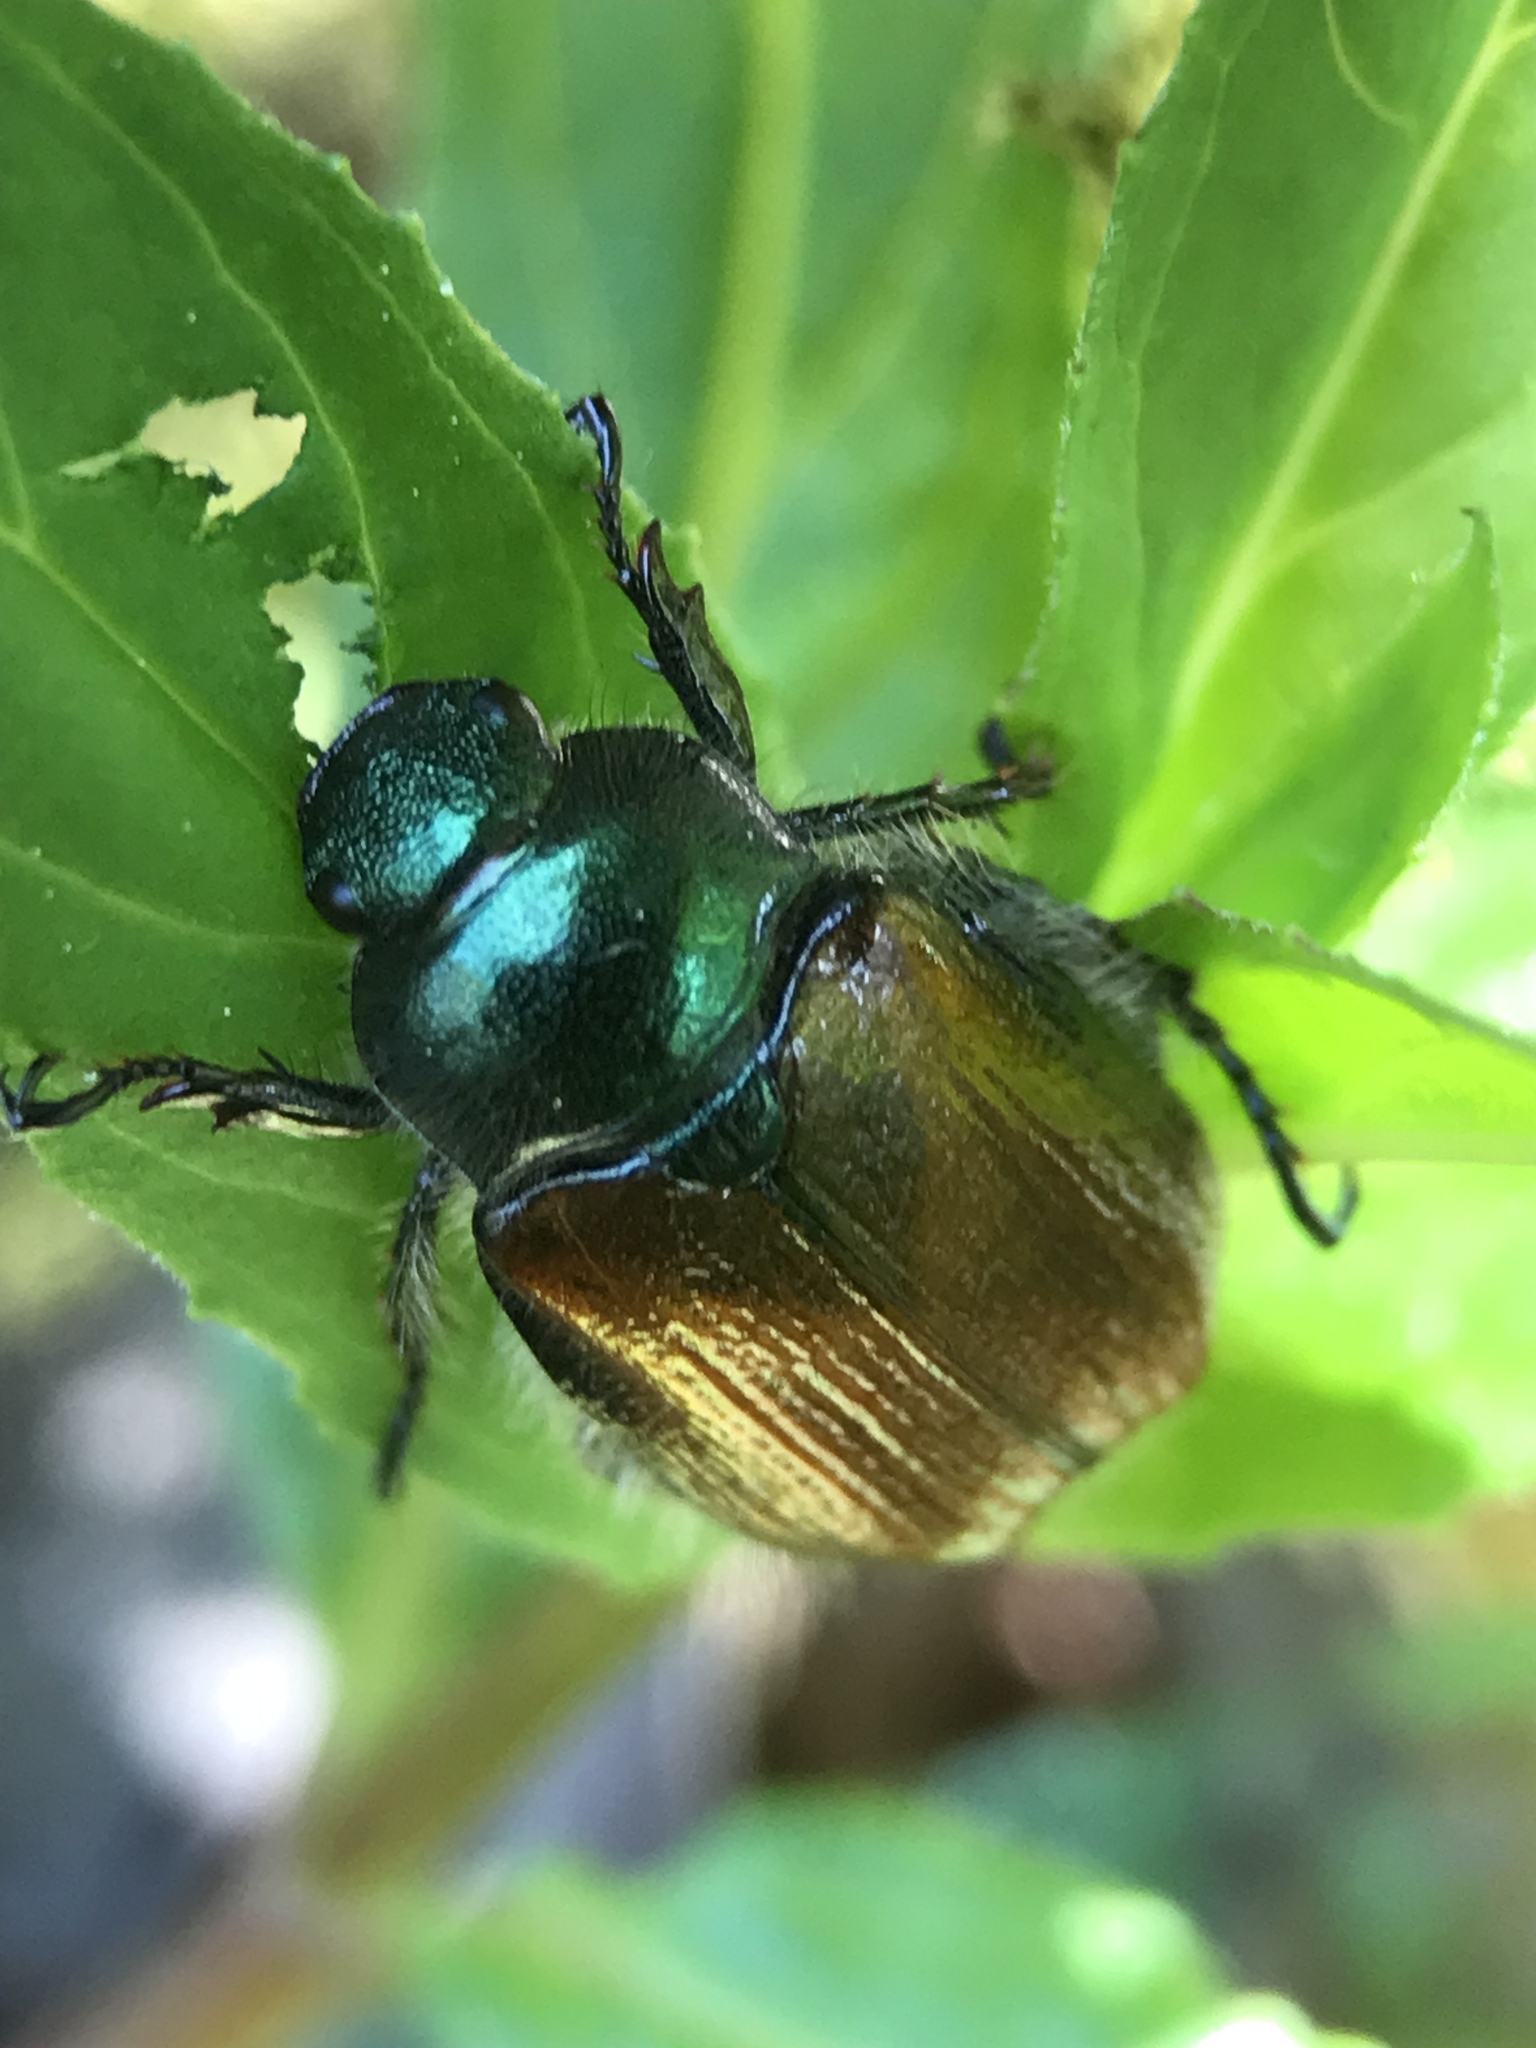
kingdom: Animalia
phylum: Arthropoda
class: Insecta
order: Coleoptera
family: Scarabaeidae
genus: Phyllopertha
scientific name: Phyllopertha horticola
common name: Garden chafer
